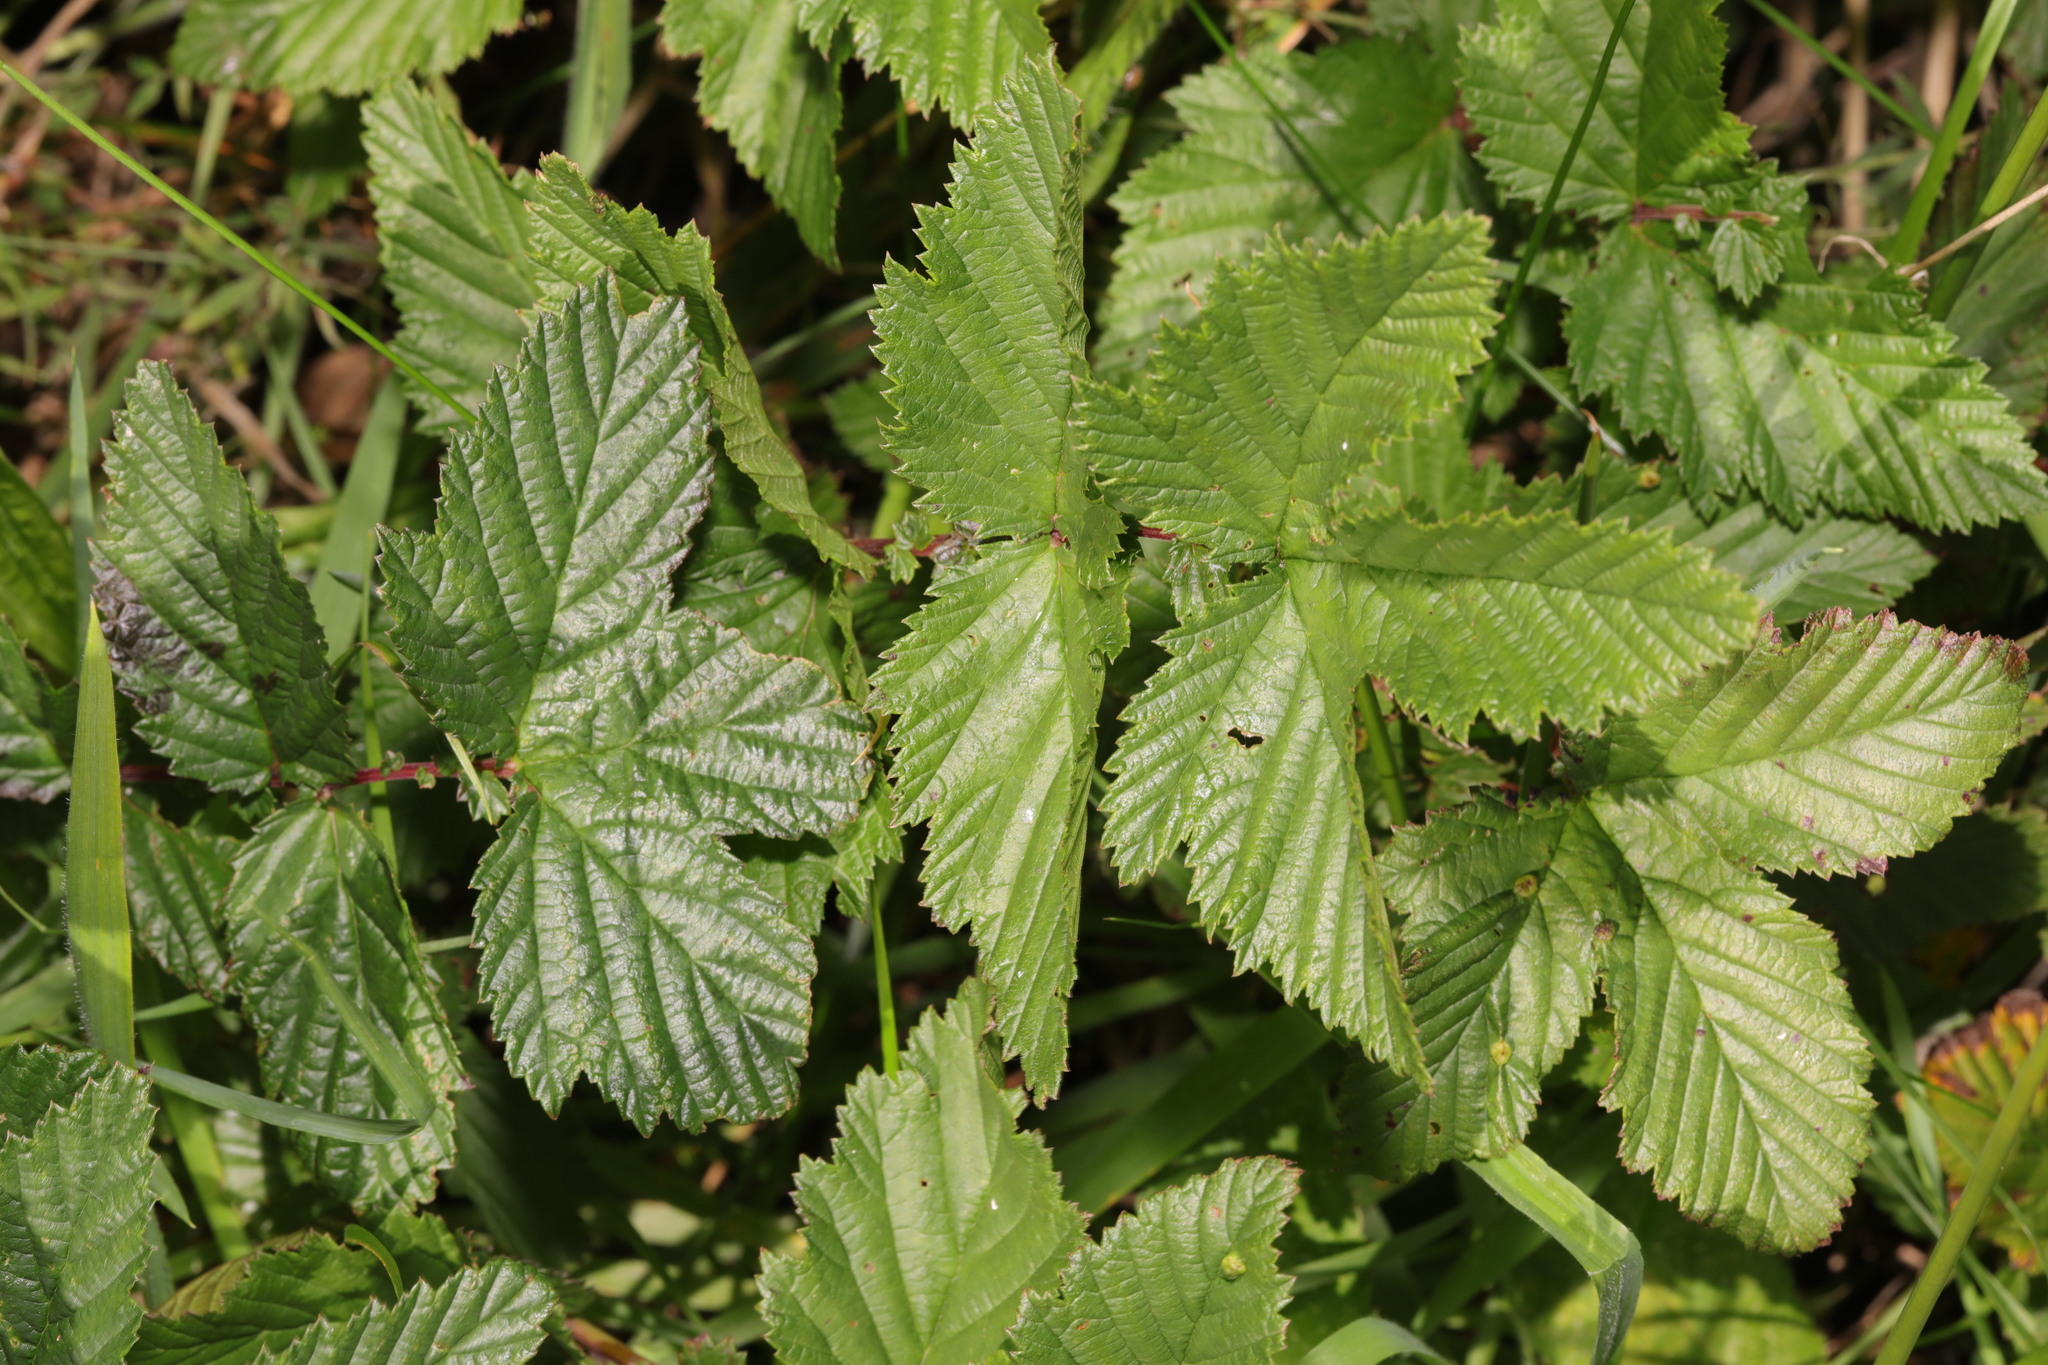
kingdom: Plantae
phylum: Tracheophyta
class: Magnoliopsida
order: Rosales
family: Rosaceae
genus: Filipendula
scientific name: Filipendula ulmaria
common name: Meadowsweet
